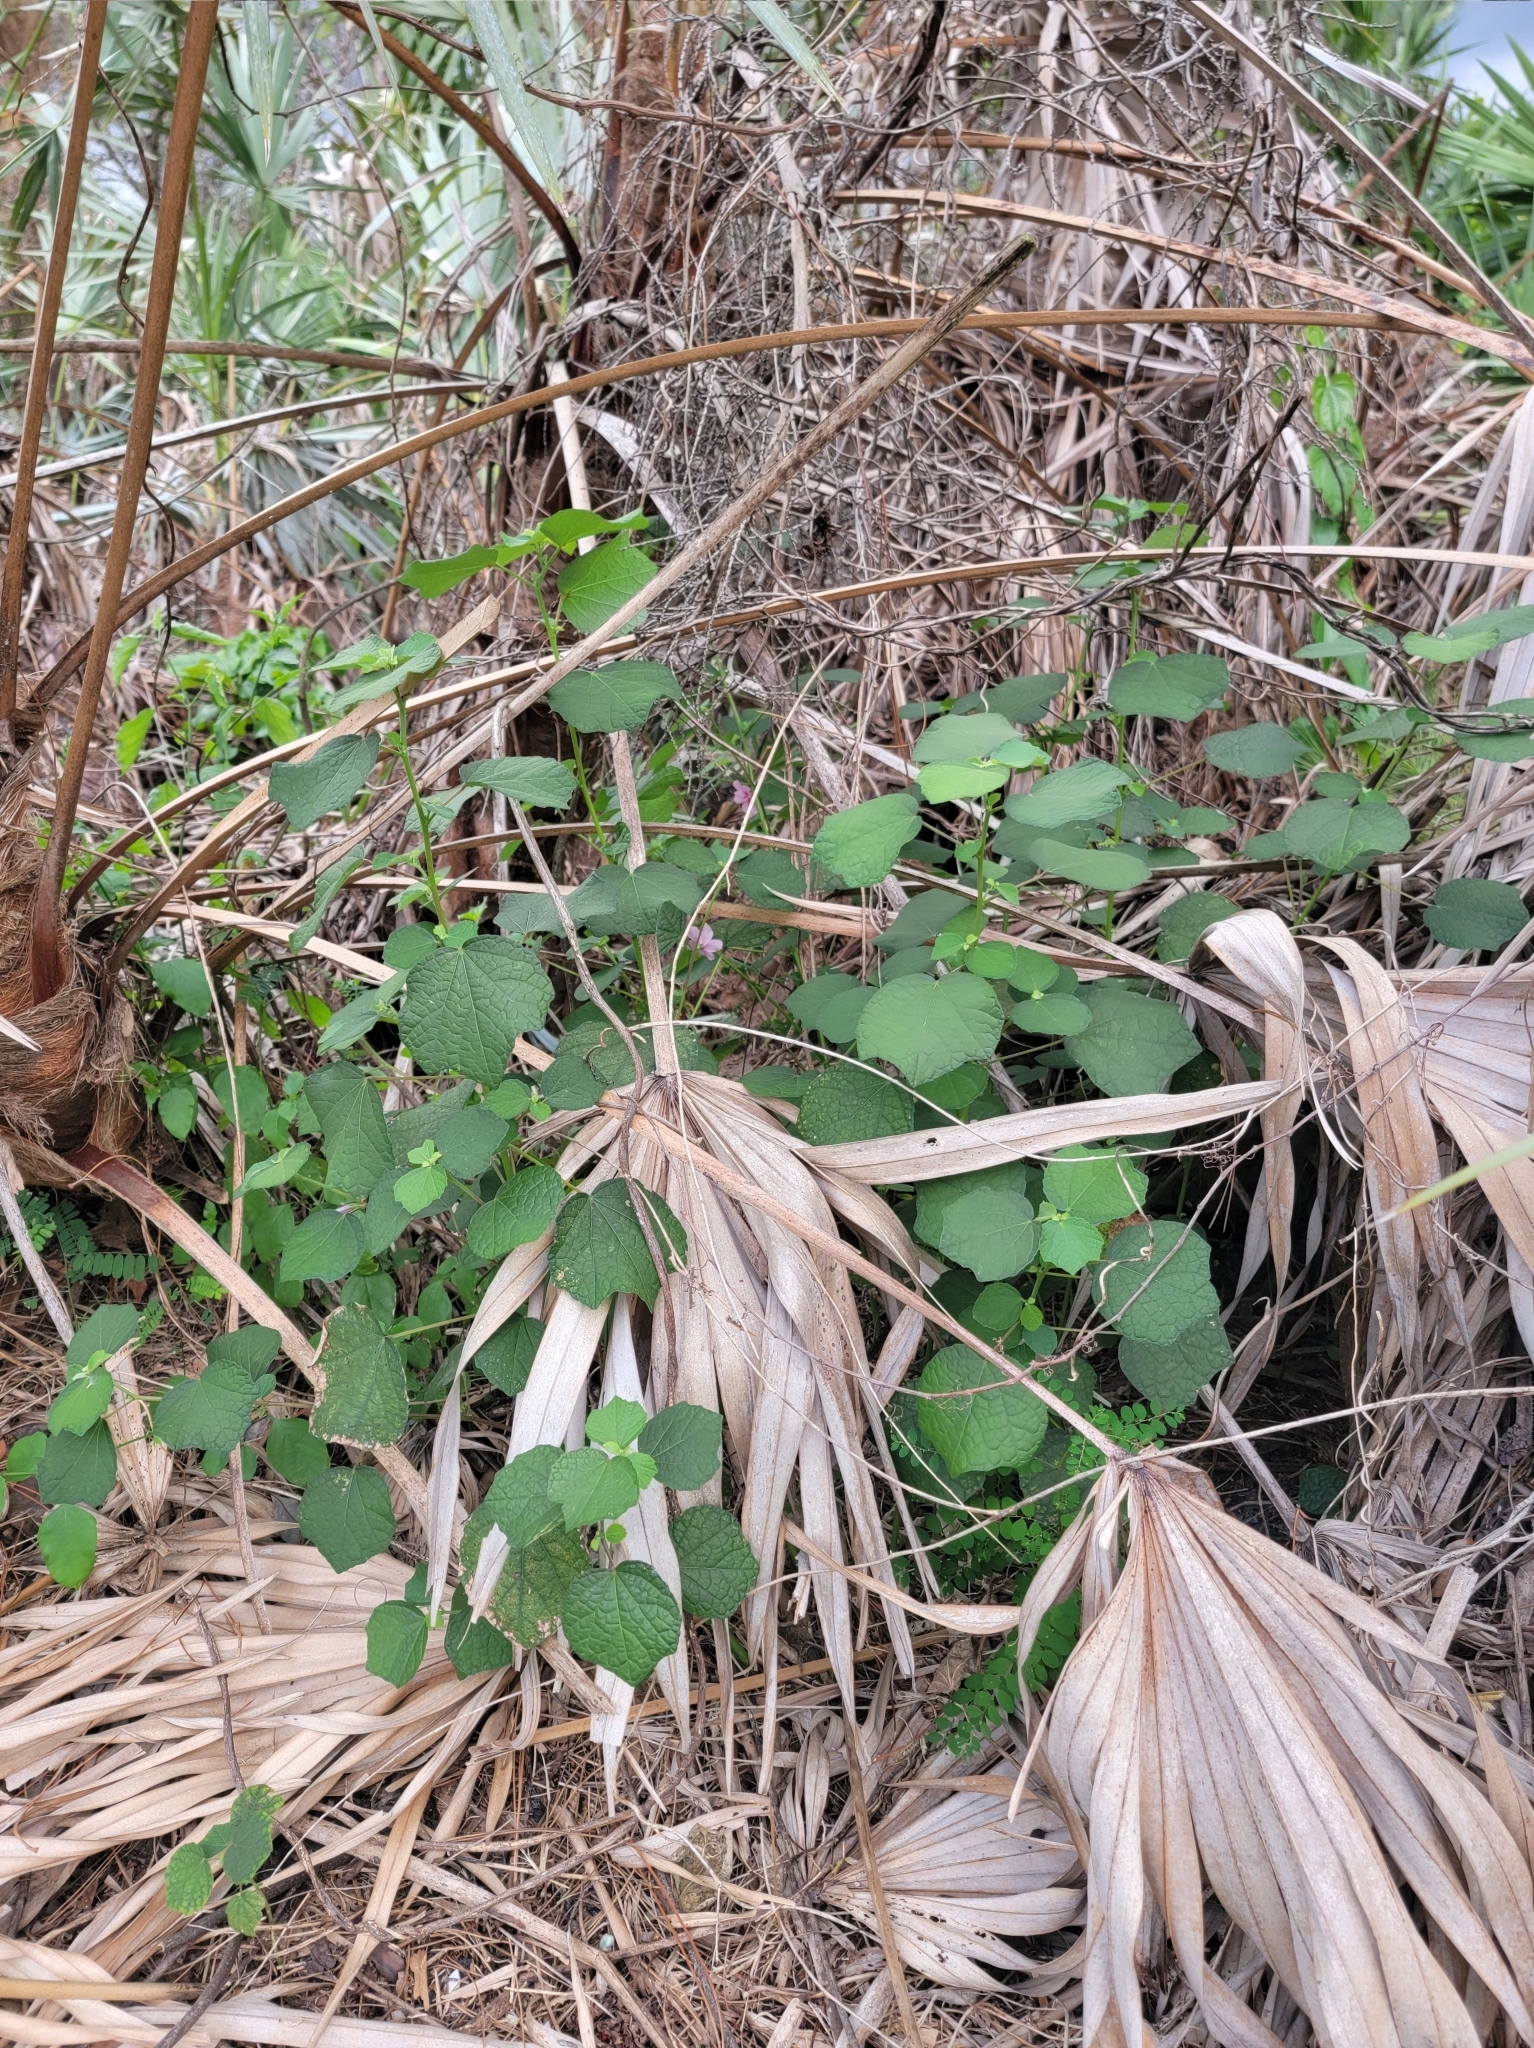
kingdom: Plantae
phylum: Tracheophyta
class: Magnoliopsida
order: Malvales
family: Malvaceae
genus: Urena
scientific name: Urena lobata
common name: Caesarweed
